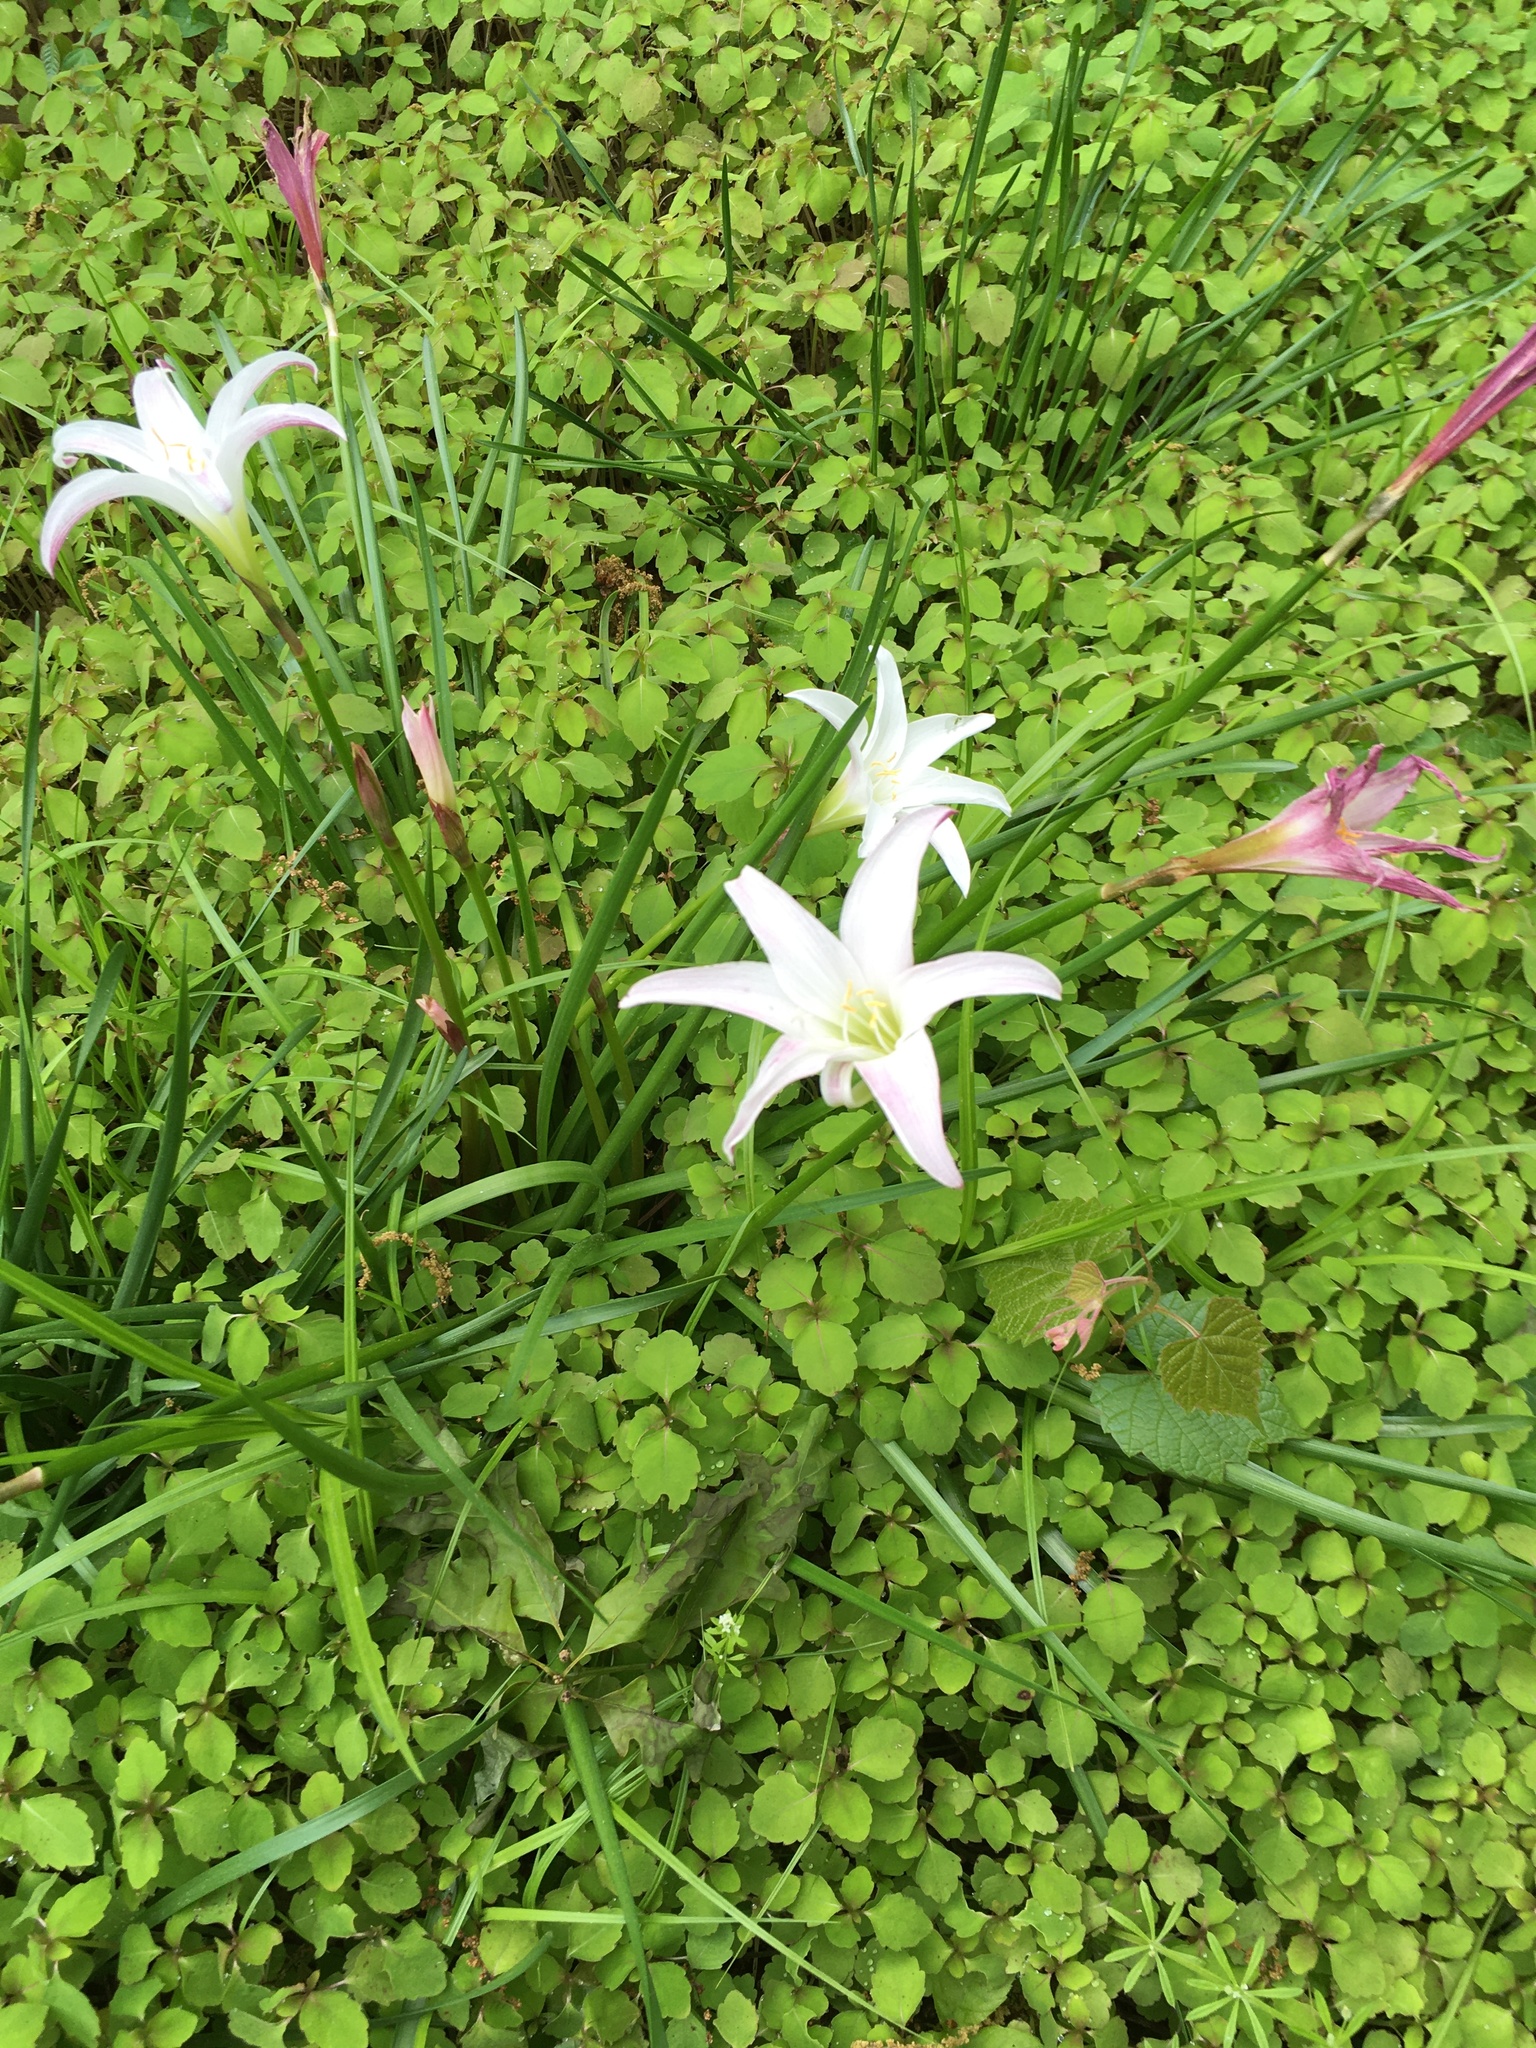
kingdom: Plantae
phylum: Tracheophyta
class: Liliopsida
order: Asparagales
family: Amaryllidaceae
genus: Zephyranthes
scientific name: Zephyranthes atamasco
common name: Atamasco lily
